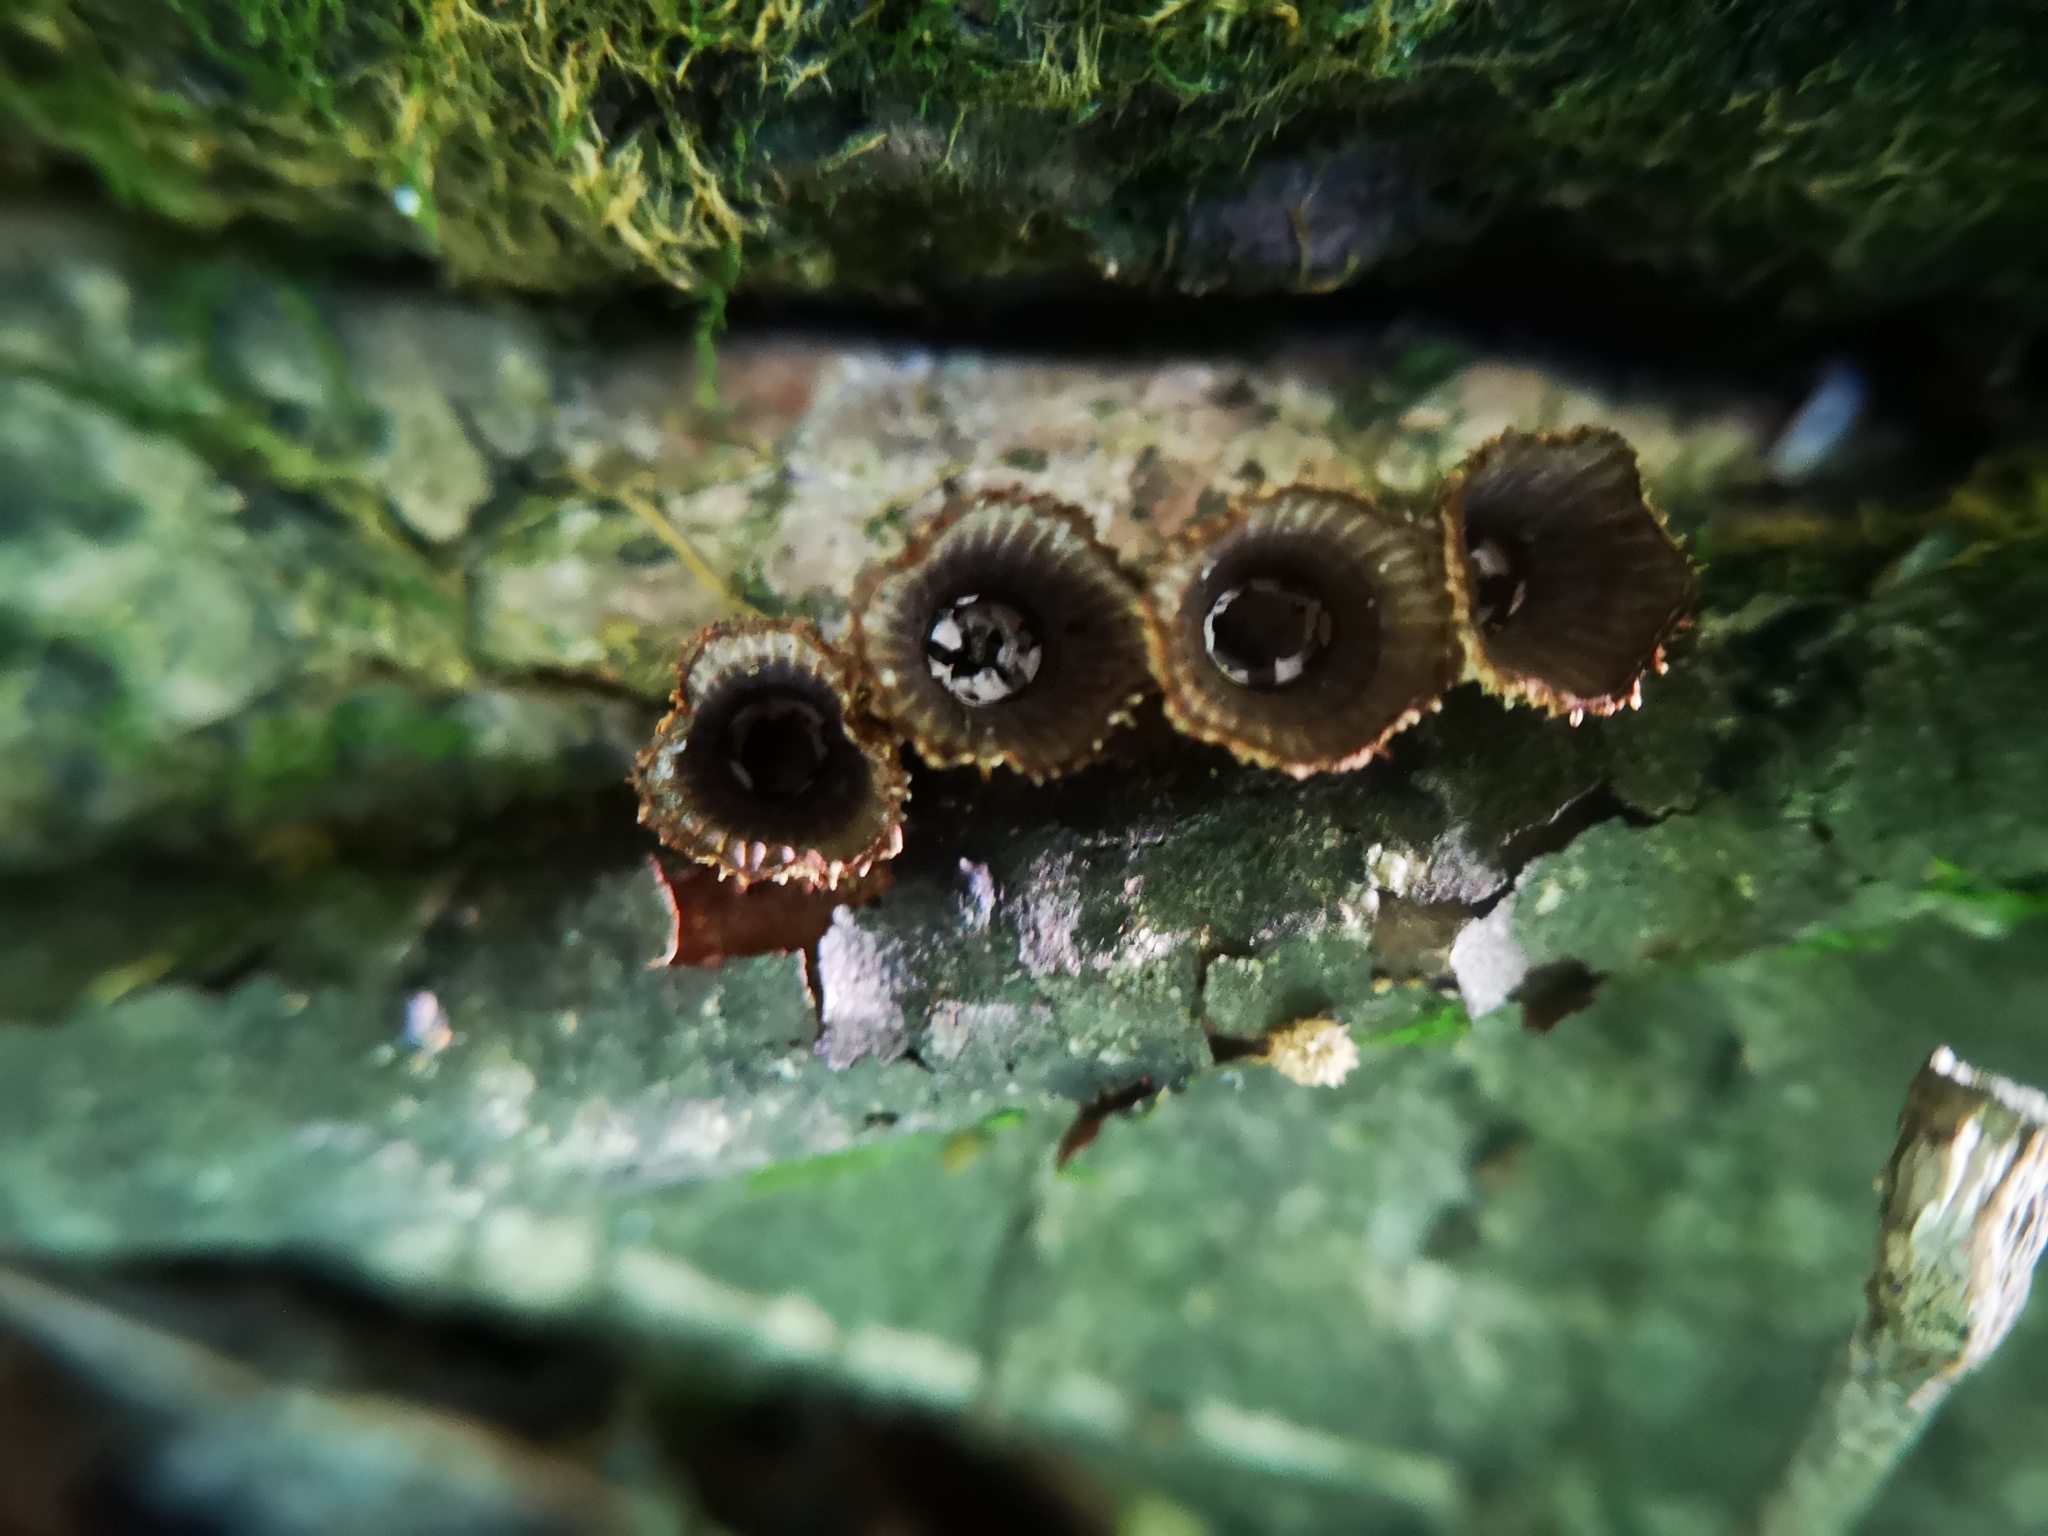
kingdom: Fungi
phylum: Basidiomycota
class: Agaricomycetes
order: Agaricales
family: Agaricaceae
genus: Cyathus
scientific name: Cyathus striatus
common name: Fluted bird's nest
